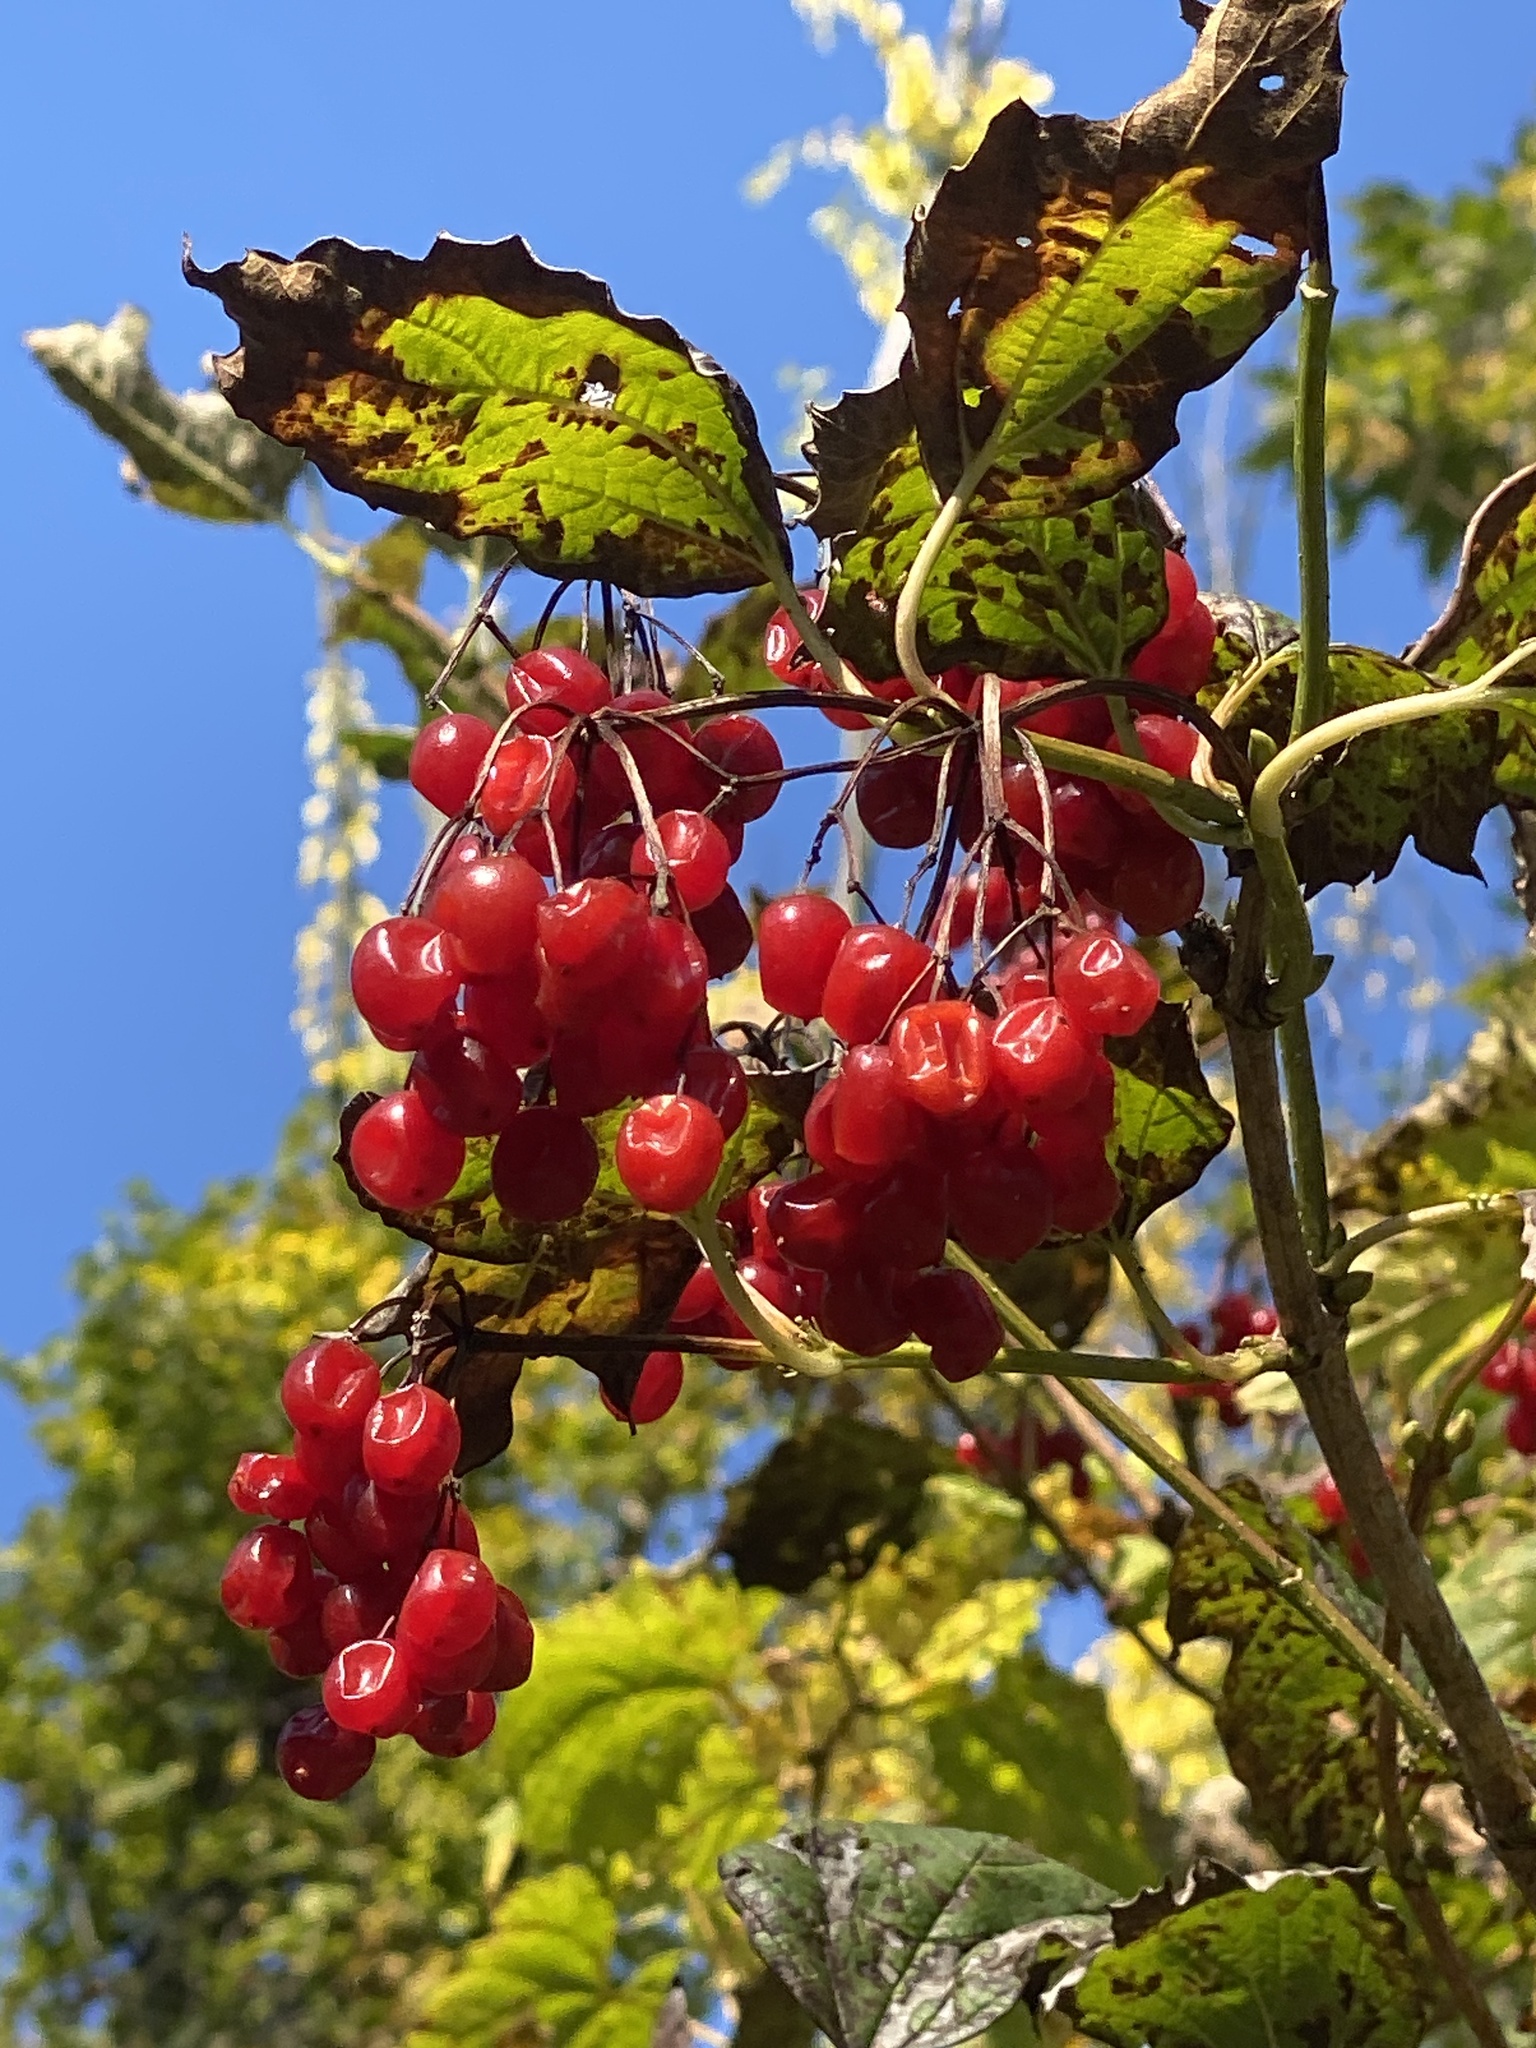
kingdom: Plantae
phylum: Tracheophyta
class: Magnoliopsida
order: Dipsacales
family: Viburnaceae
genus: Viburnum
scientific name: Viburnum opulus
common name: Guelder-rose
